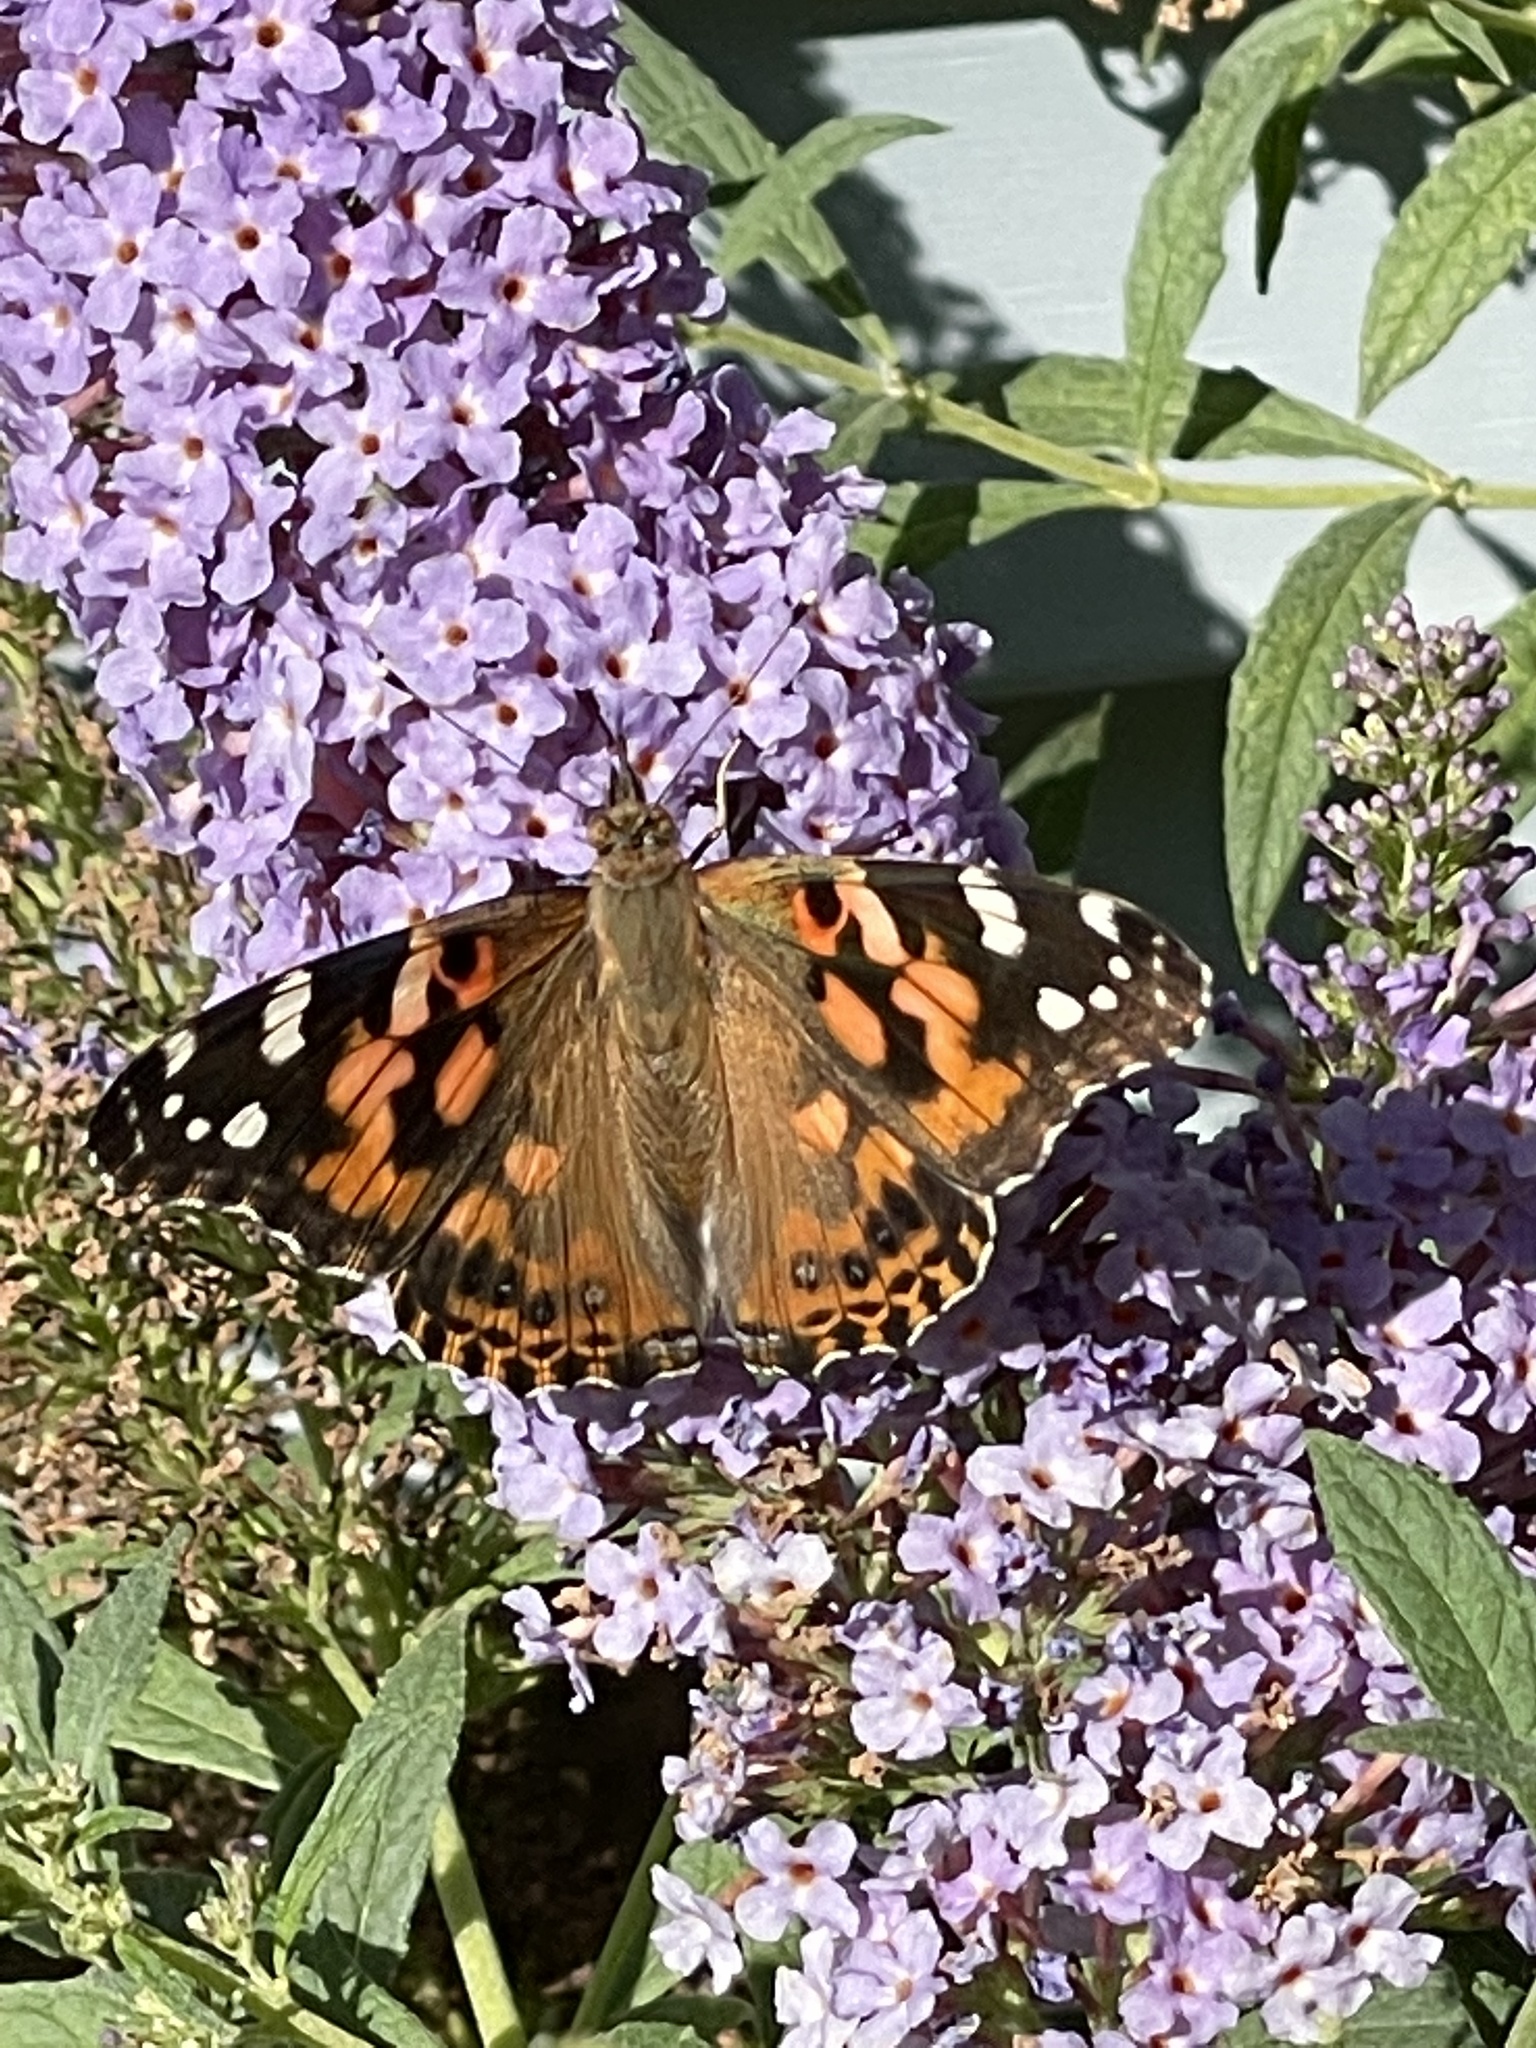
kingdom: Animalia
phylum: Arthropoda
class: Insecta
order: Lepidoptera
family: Nymphalidae
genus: Vanessa
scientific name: Vanessa cardui
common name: Painted lady
